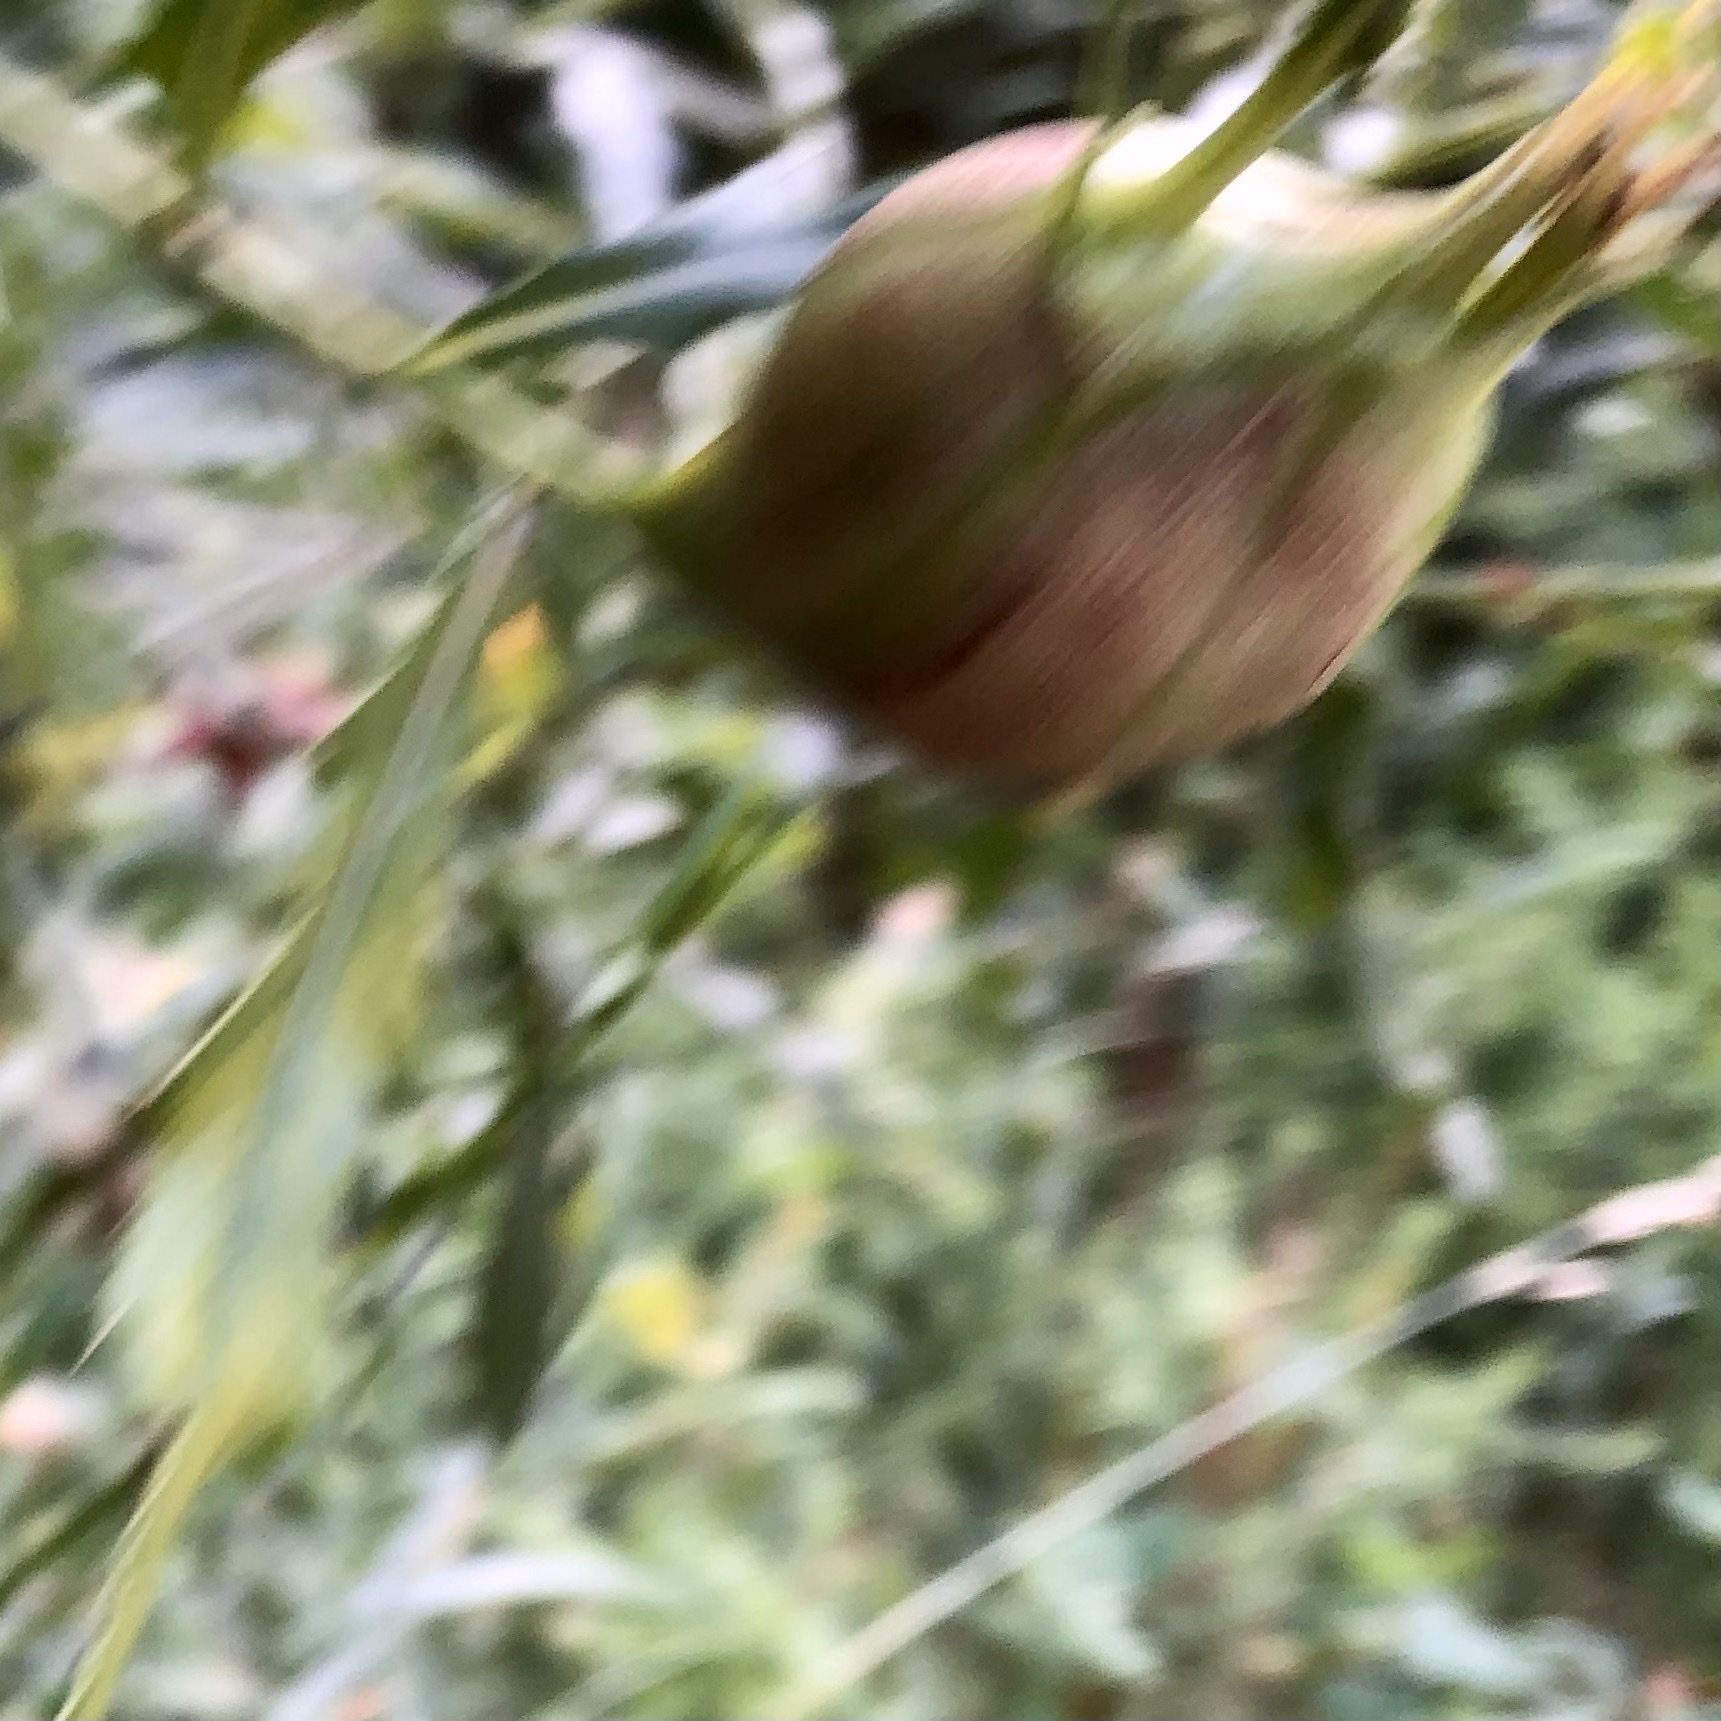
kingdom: Animalia
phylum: Arthropoda
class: Insecta
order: Diptera
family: Tephritidae
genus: Eurosta
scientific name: Eurosta solidaginis
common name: Goldenrod gall fly
